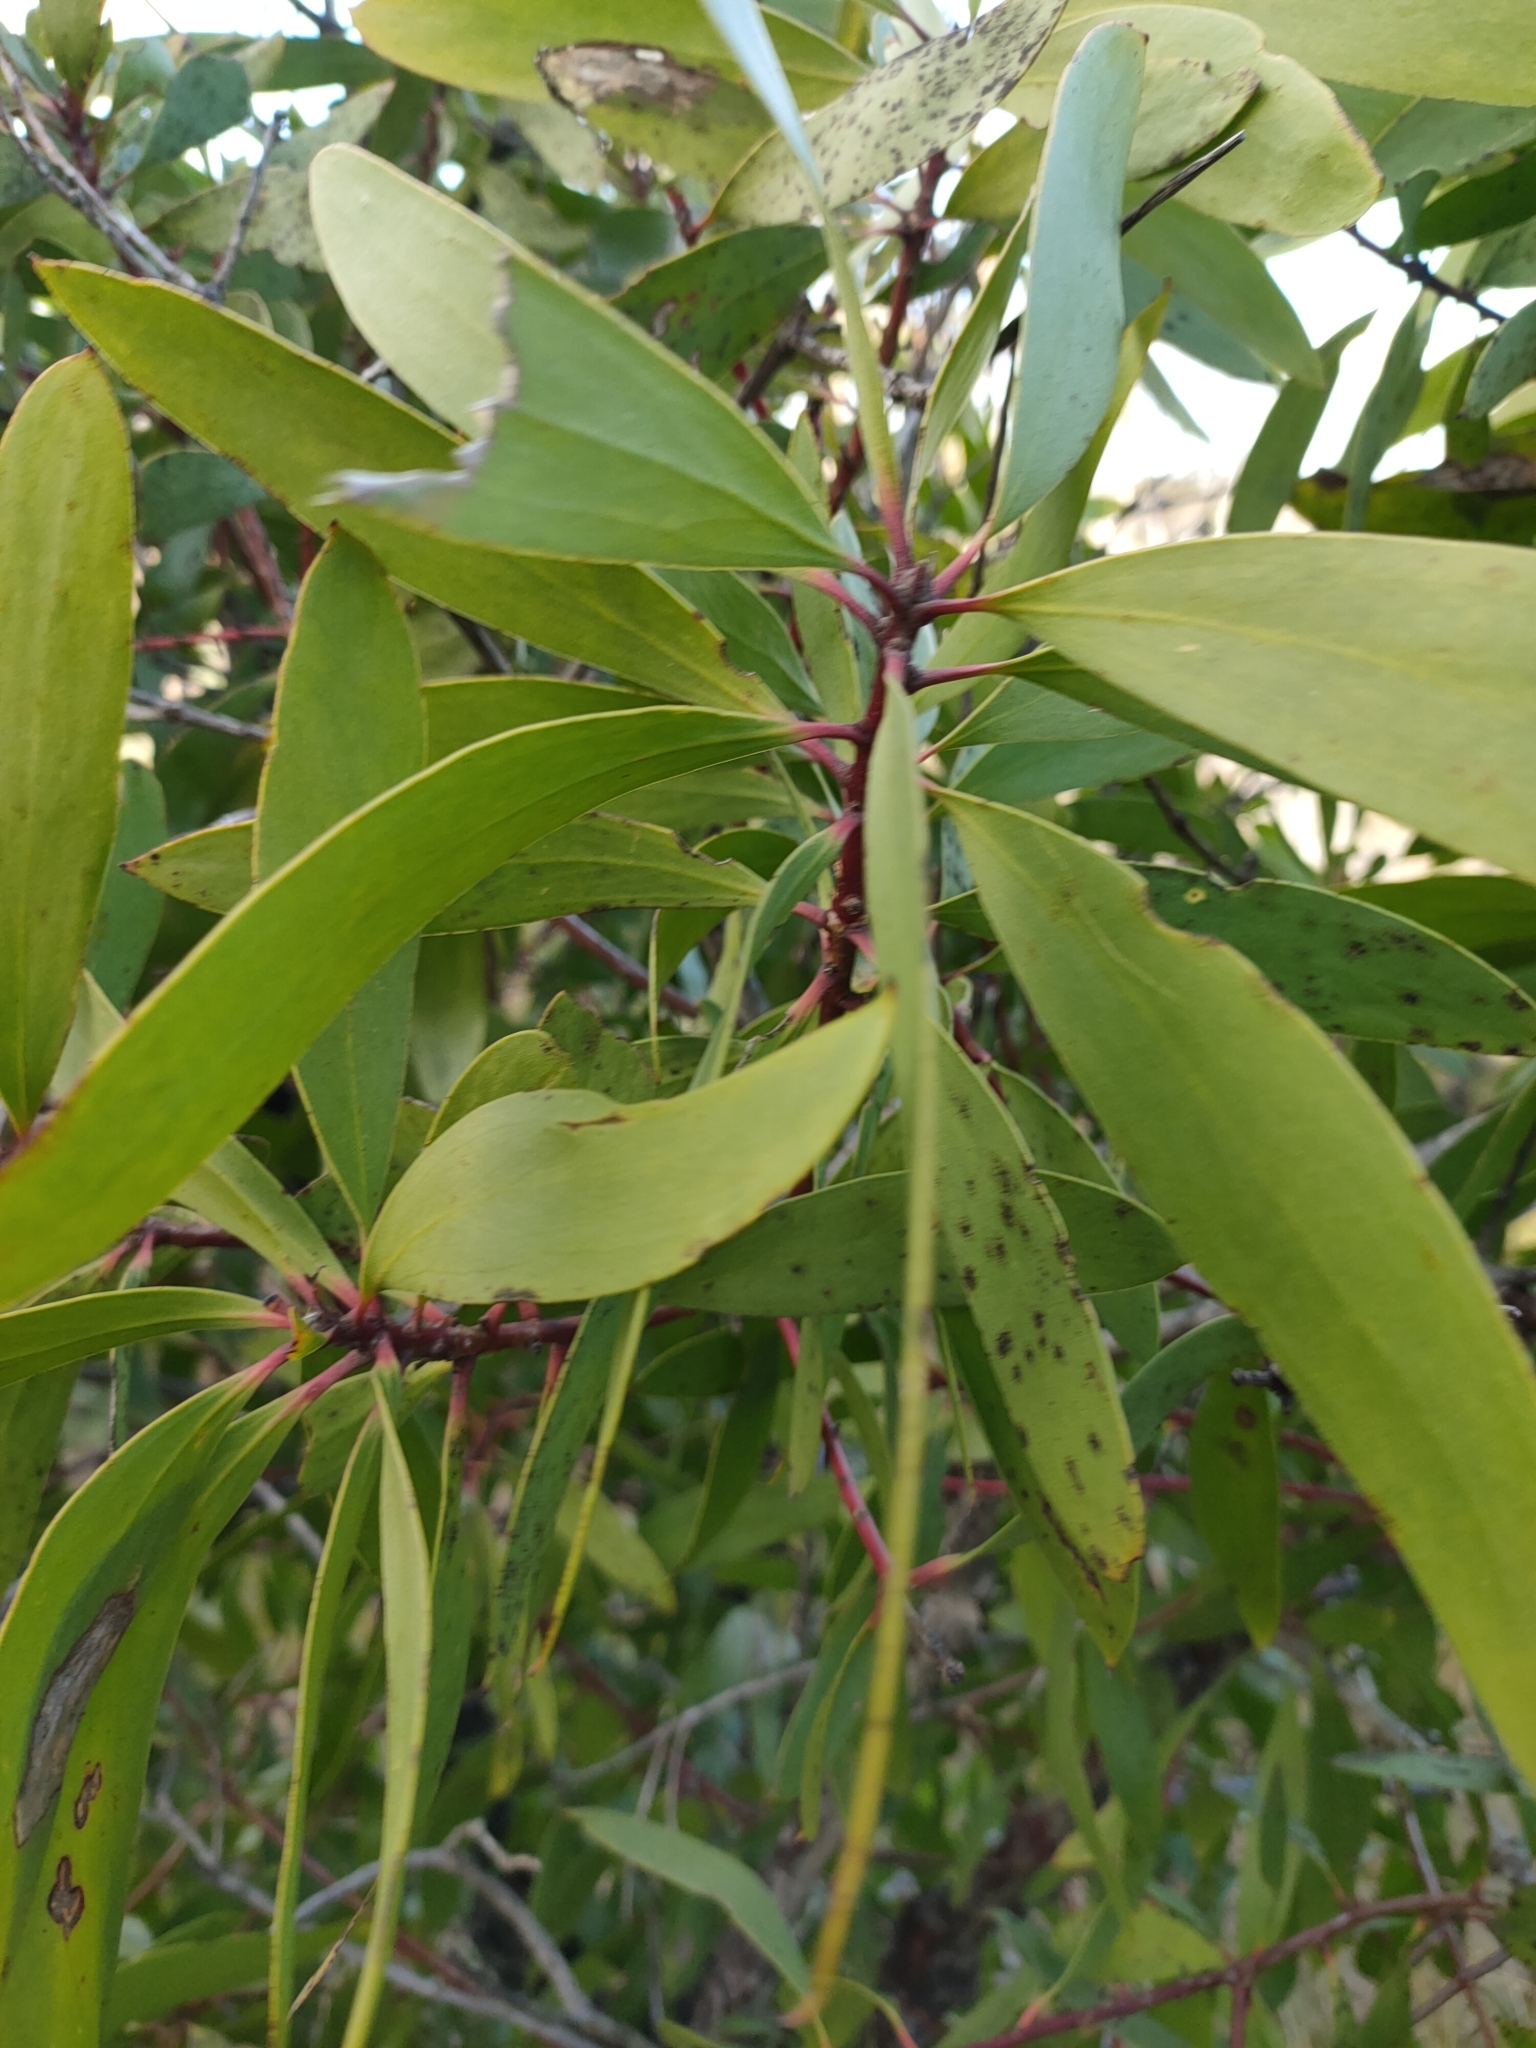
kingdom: Plantae
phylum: Tracheophyta
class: Magnoliopsida
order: Proteales
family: Proteaceae
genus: Persoonia
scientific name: Persoonia levis
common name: Smooth geebung
